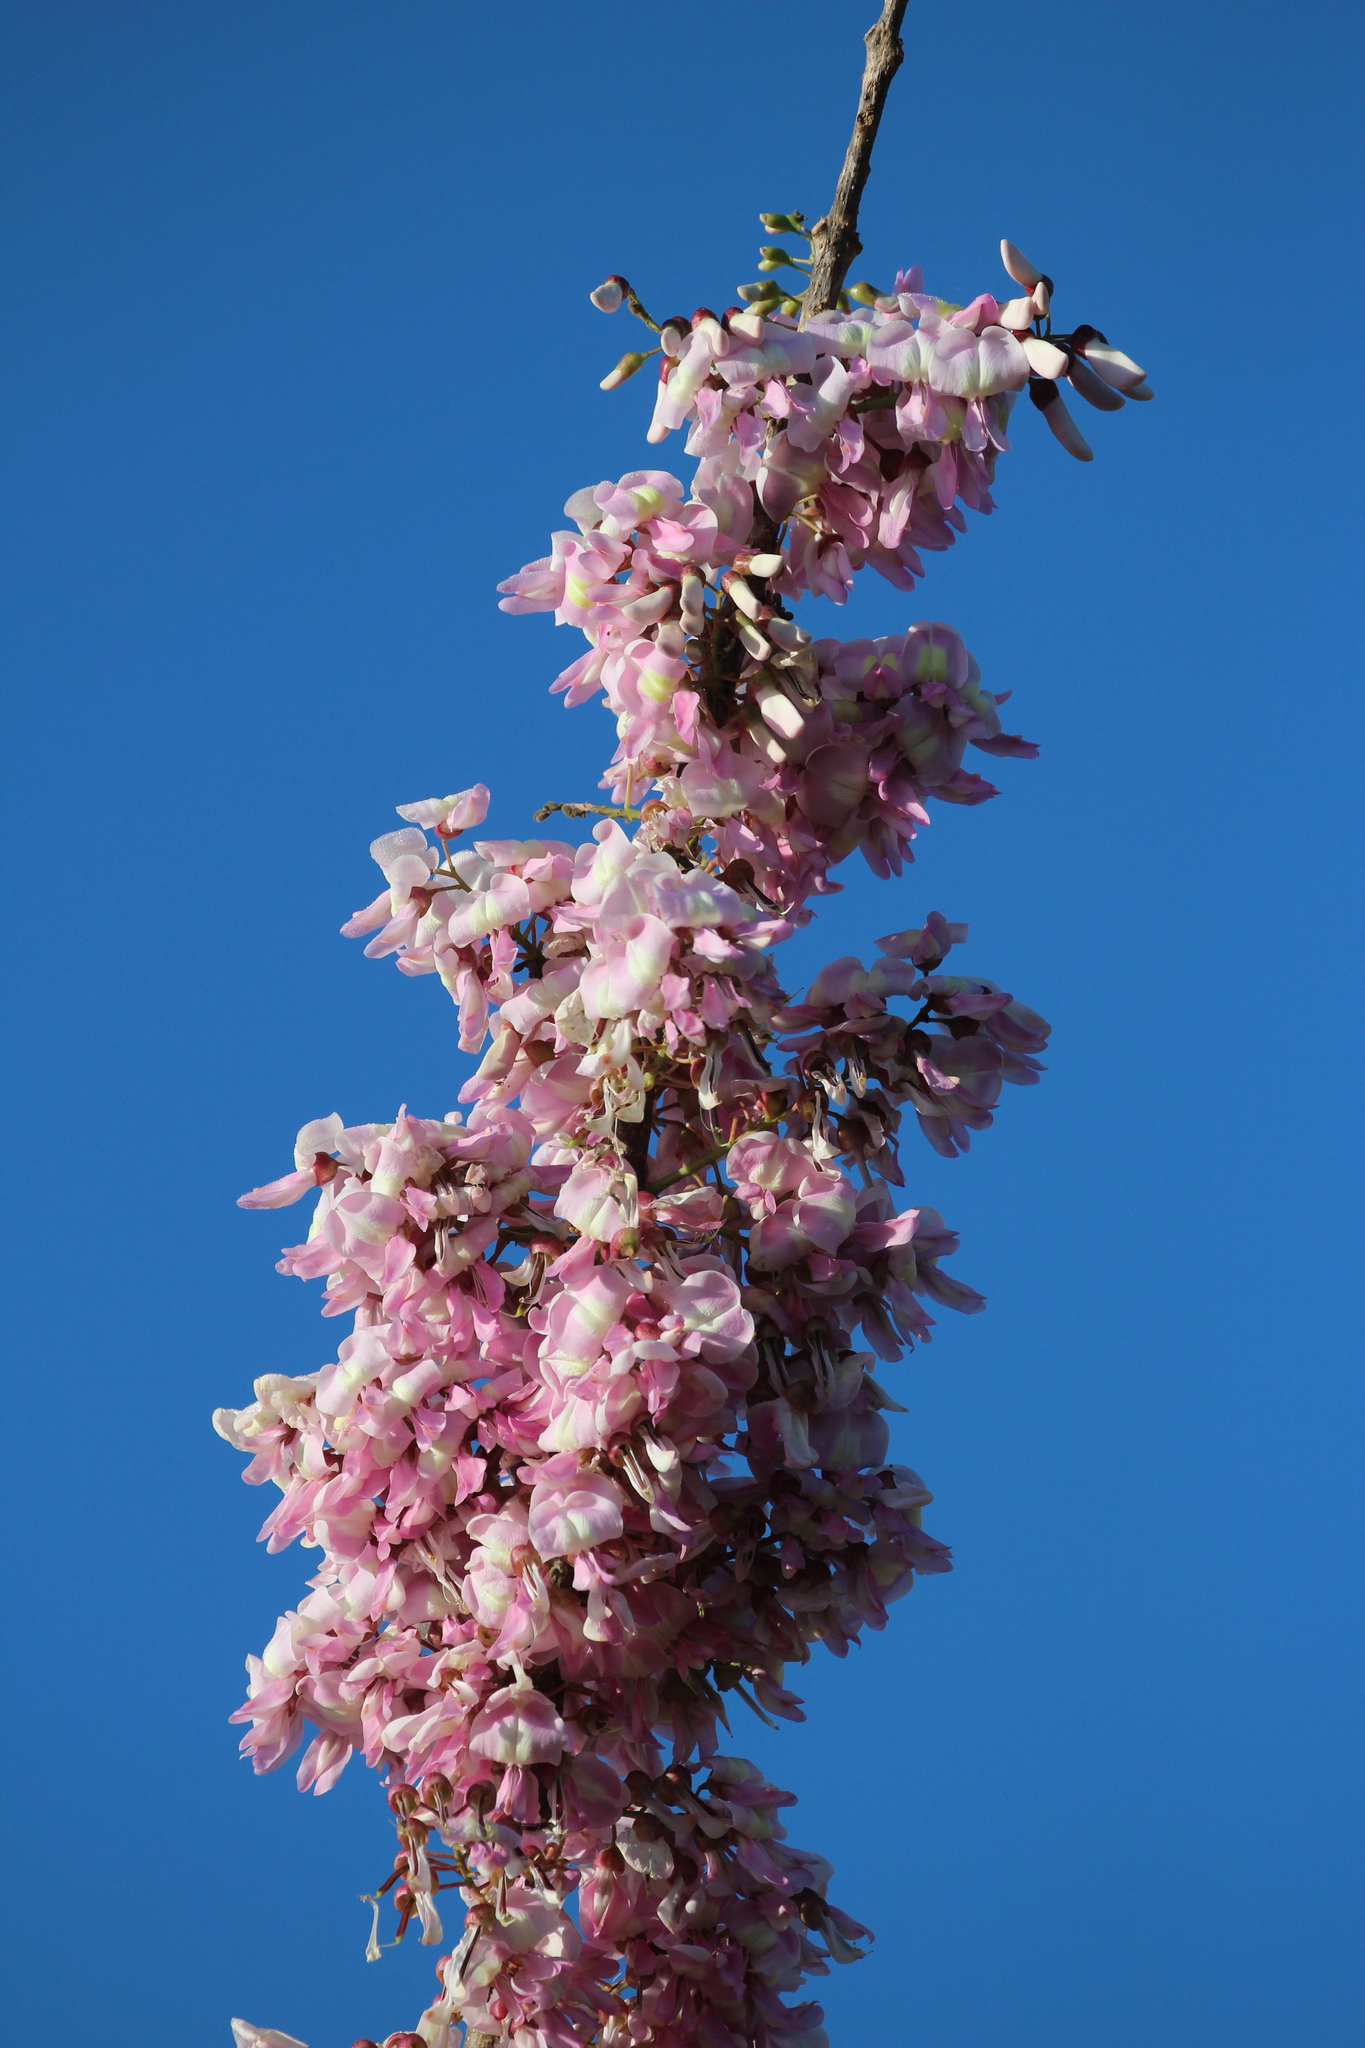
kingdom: Plantae
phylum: Tracheophyta
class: Magnoliopsida
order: Fabales
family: Fabaceae
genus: Gliricidia
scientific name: Gliricidia sepium
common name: Quickstick
